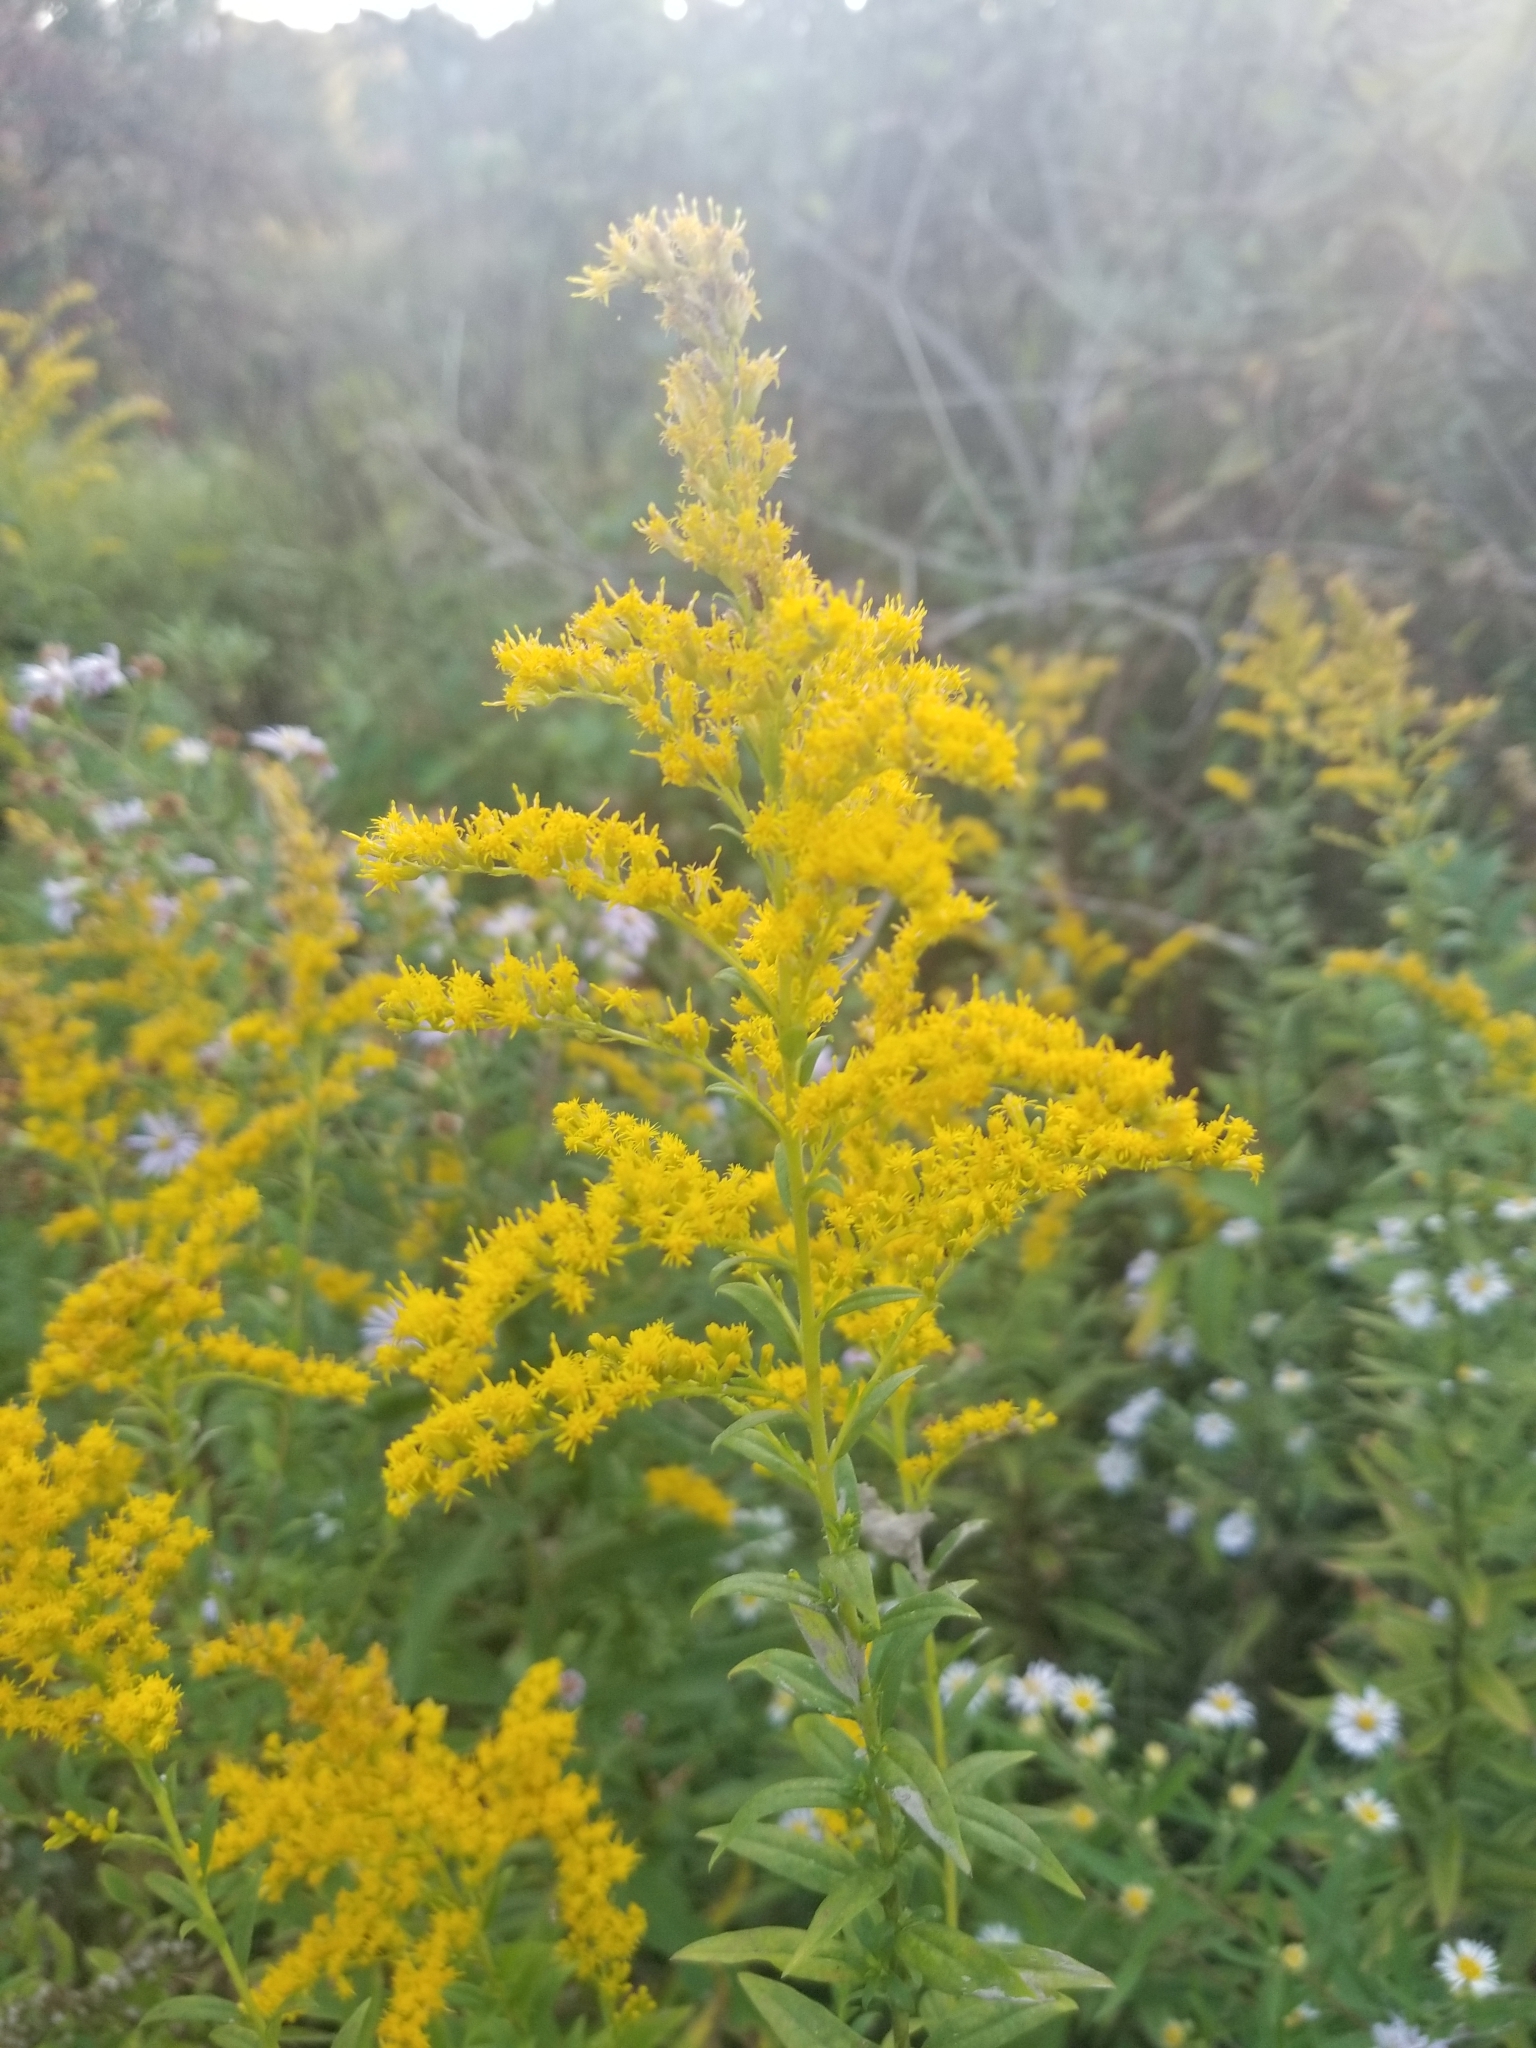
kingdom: Plantae
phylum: Tracheophyta
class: Magnoliopsida
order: Asterales
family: Asteraceae
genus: Solidago
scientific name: Solidago altissima
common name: Late goldenrod
